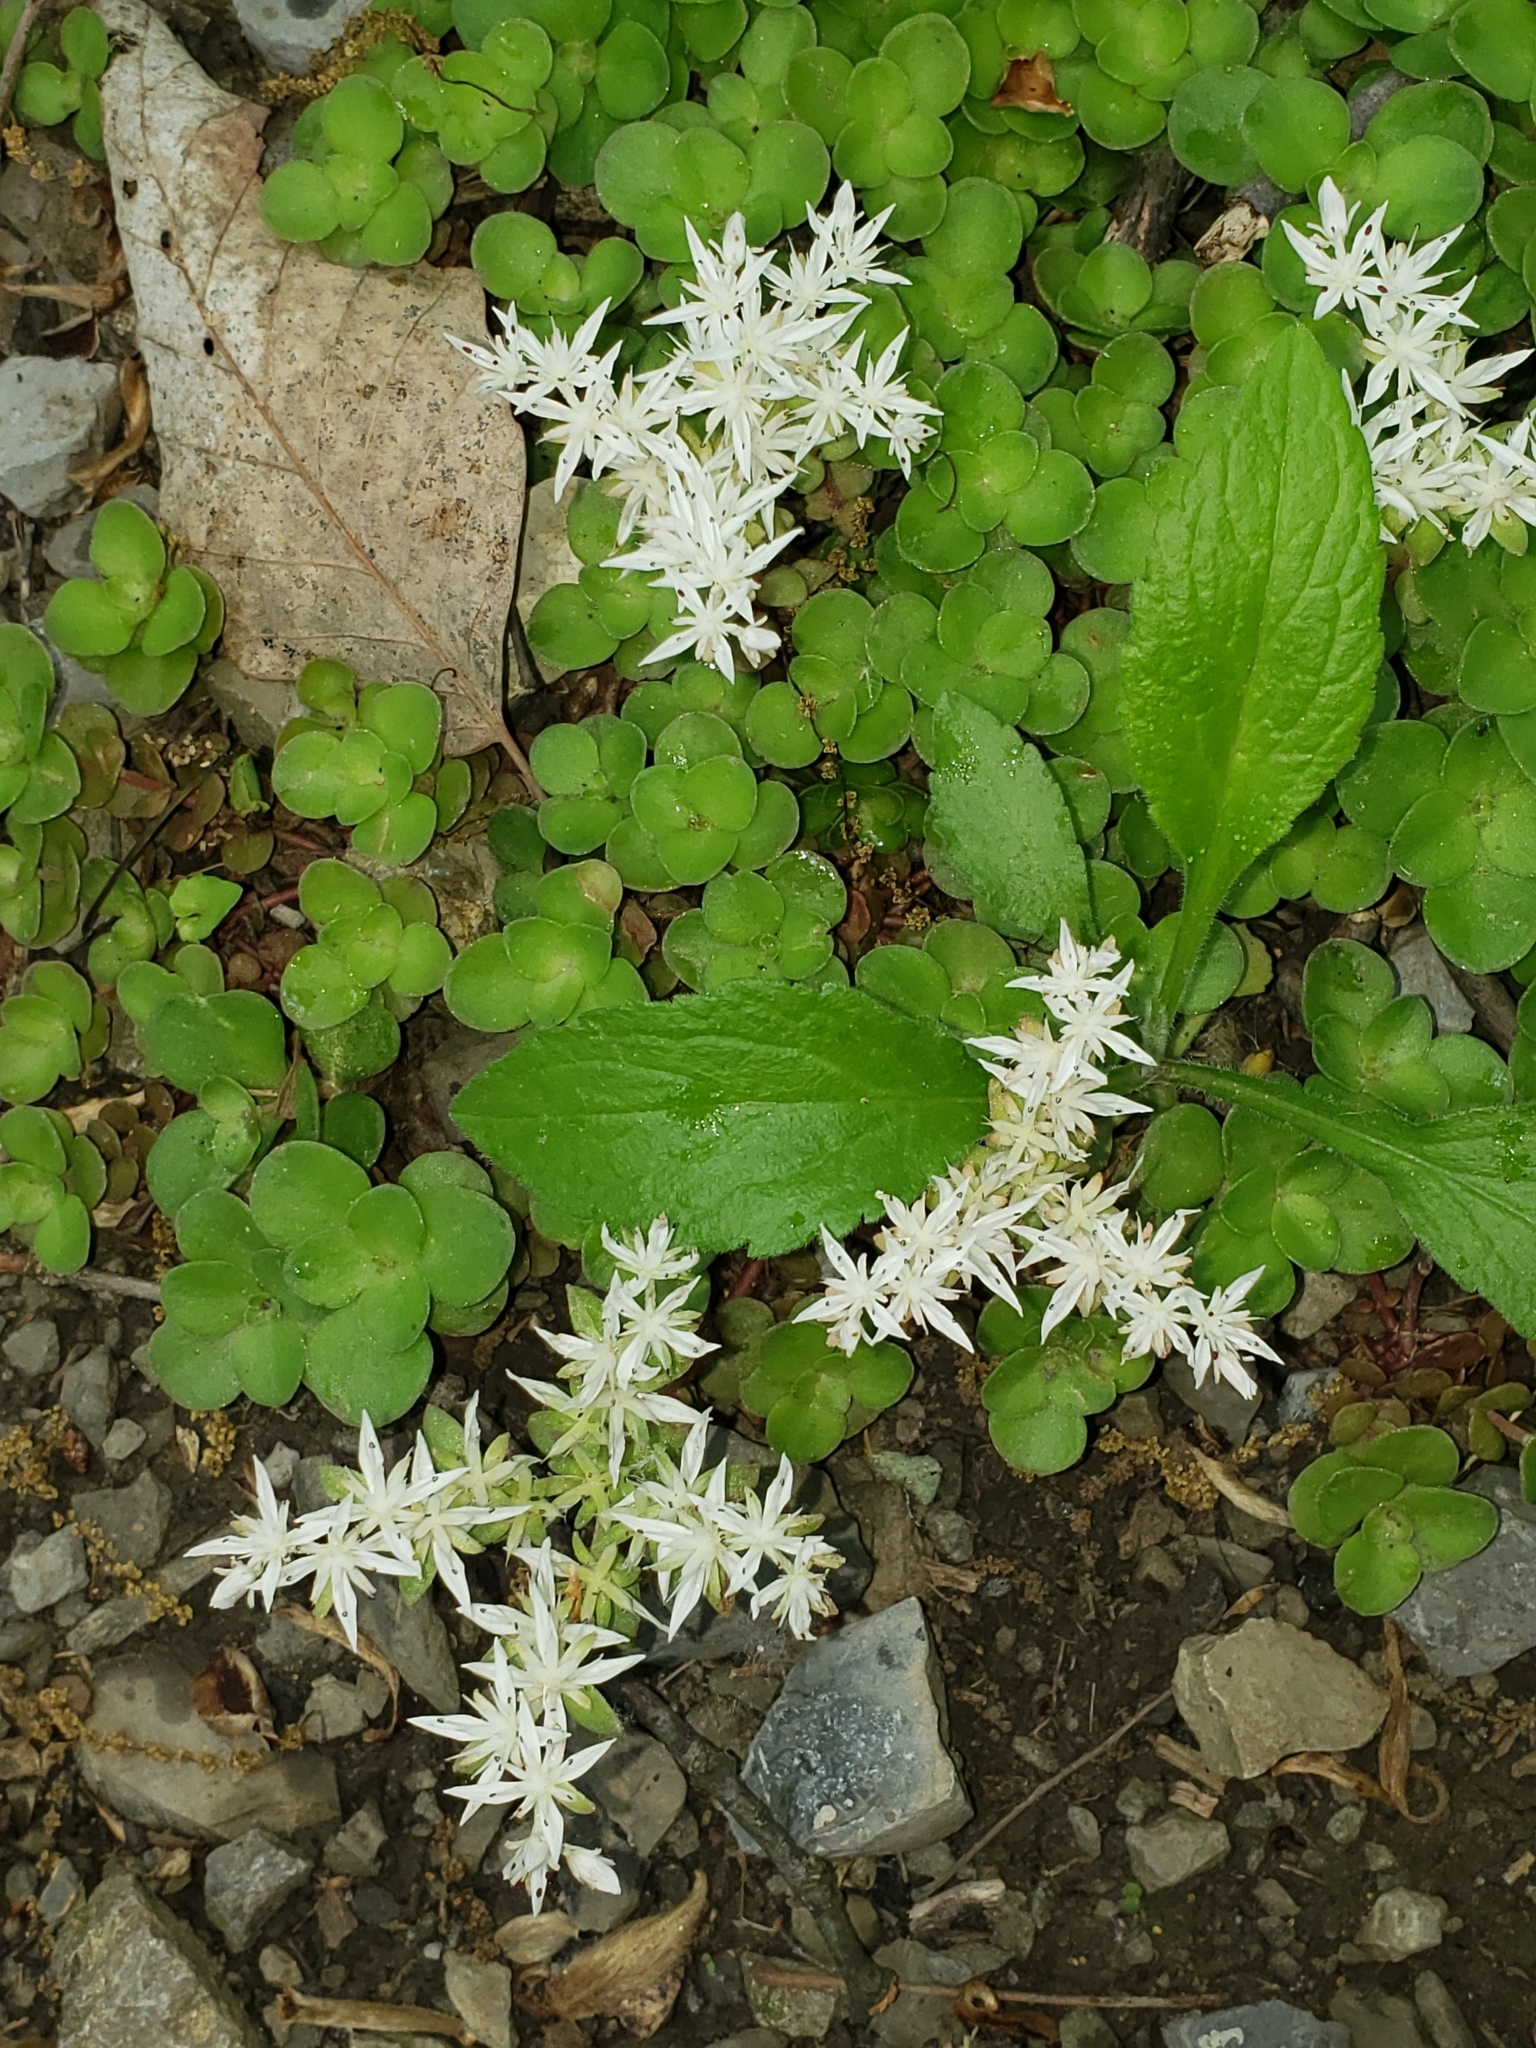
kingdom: Plantae
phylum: Tracheophyta
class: Magnoliopsida
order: Saxifragales
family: Crassulaceae
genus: Sedum
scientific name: Sedum ternatum
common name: Wild stonecrop
